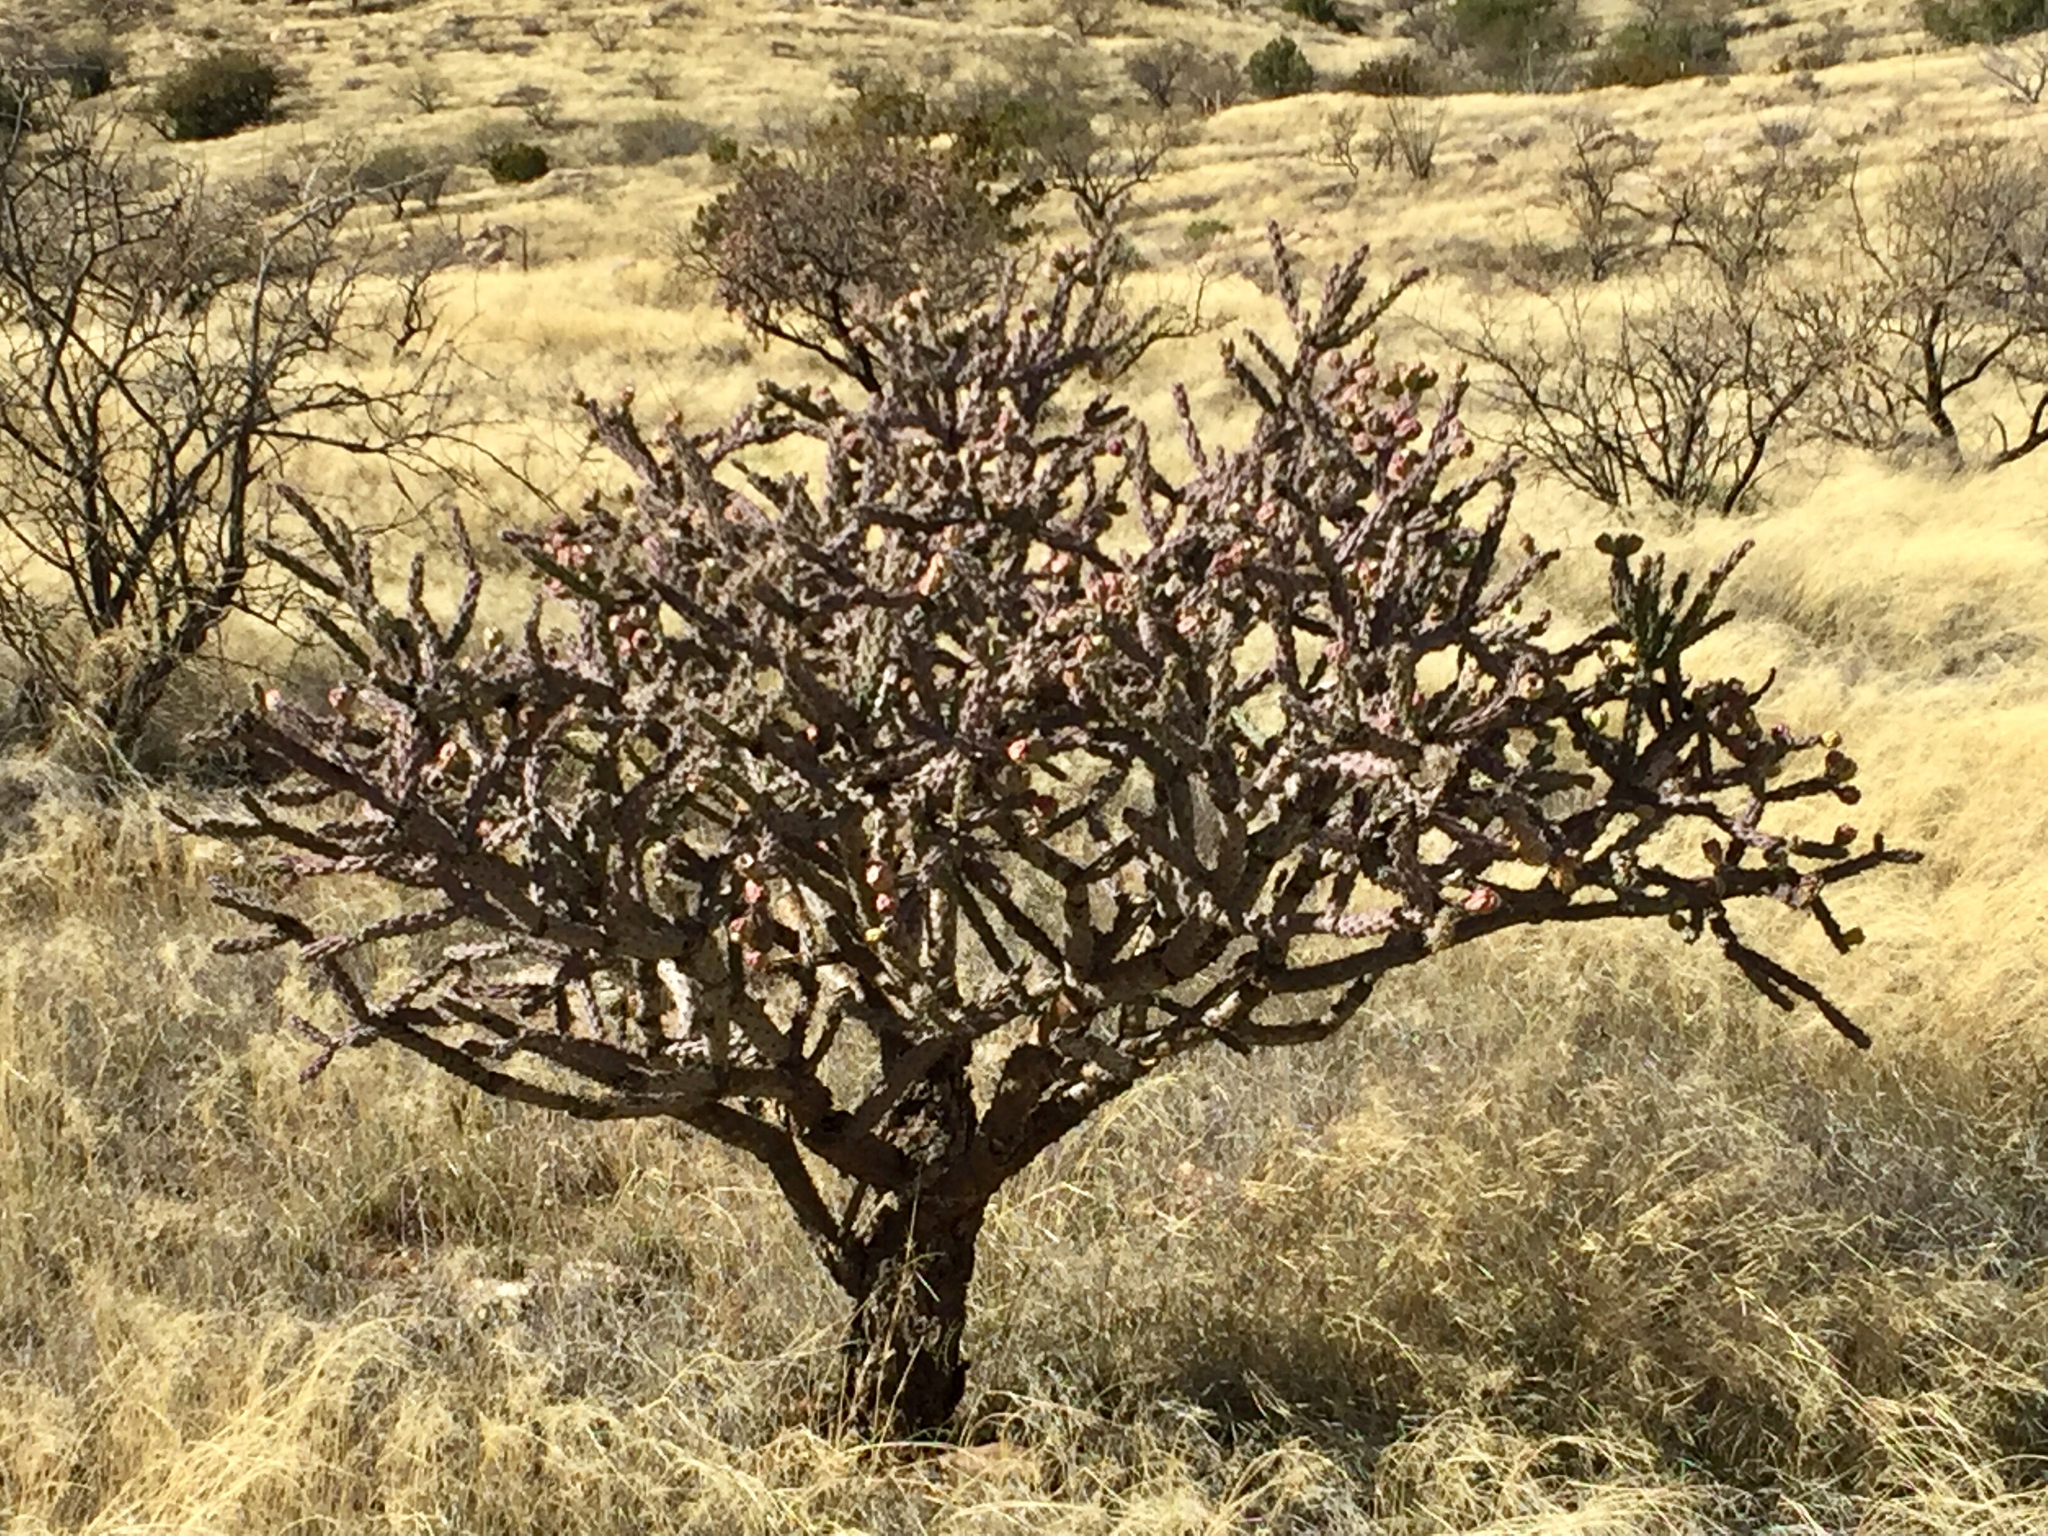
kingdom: Plantae
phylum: Tracheophyta
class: Magnoliopsida
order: Caryophyllales
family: Cactaceae
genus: Cylindropuntia
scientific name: Cylindropuntia thurberi
